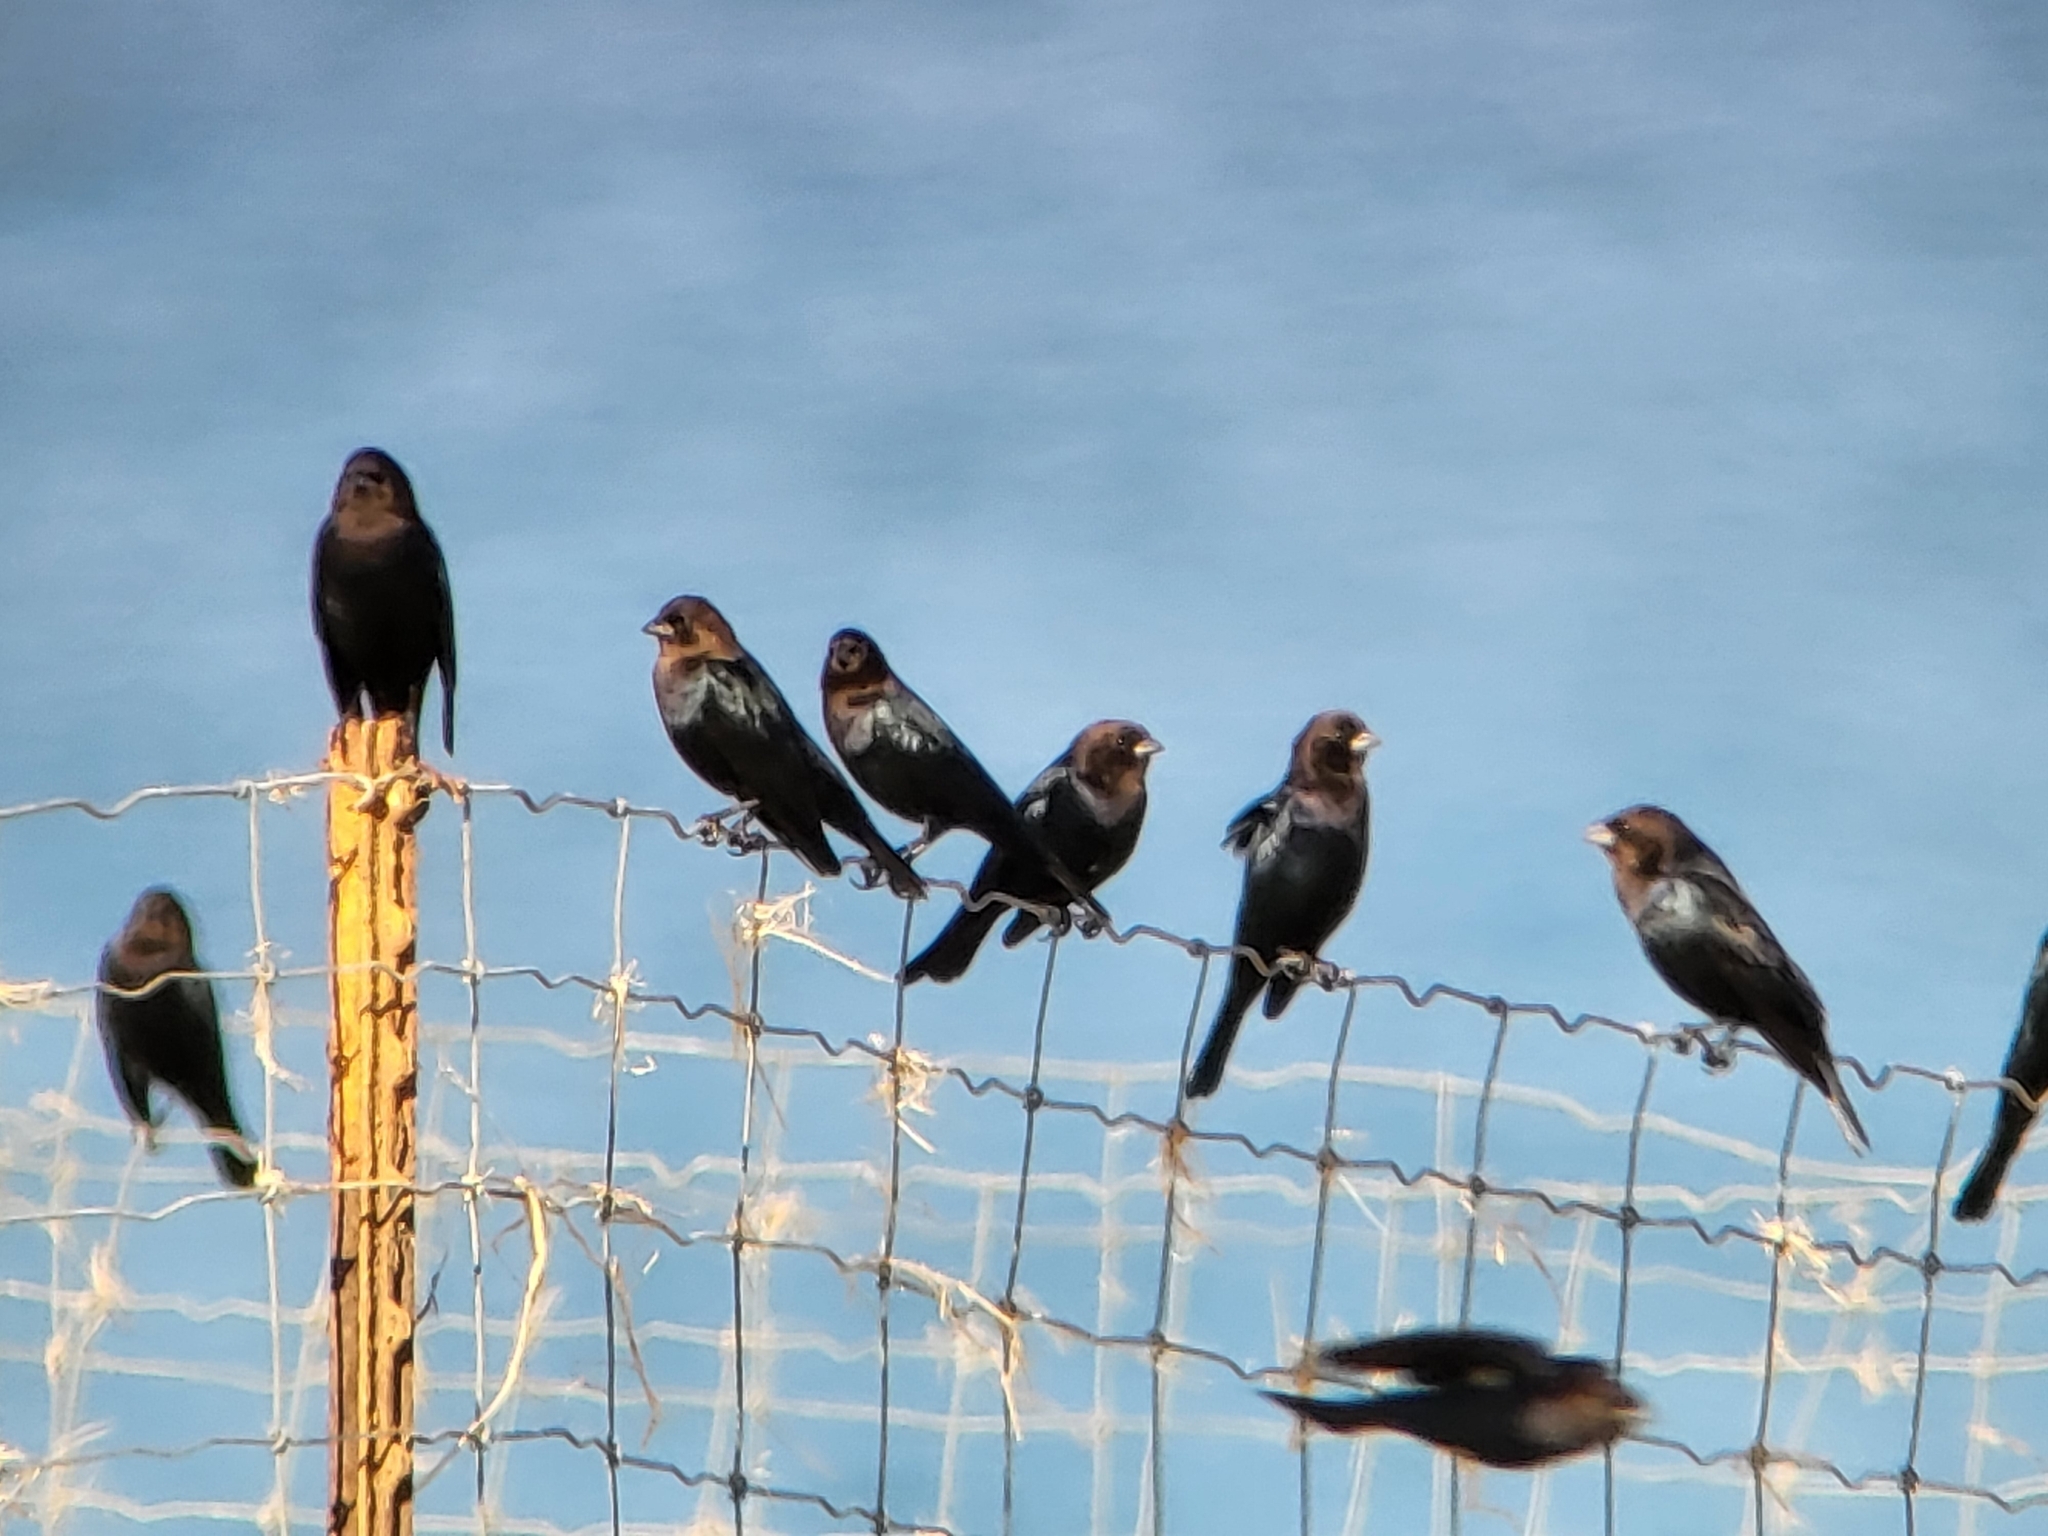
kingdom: Animalia
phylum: Chordata
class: Aves
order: Passeriformes
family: Icteridae
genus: Molothrus
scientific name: Molothrus ater
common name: Brown-headed cowbird
